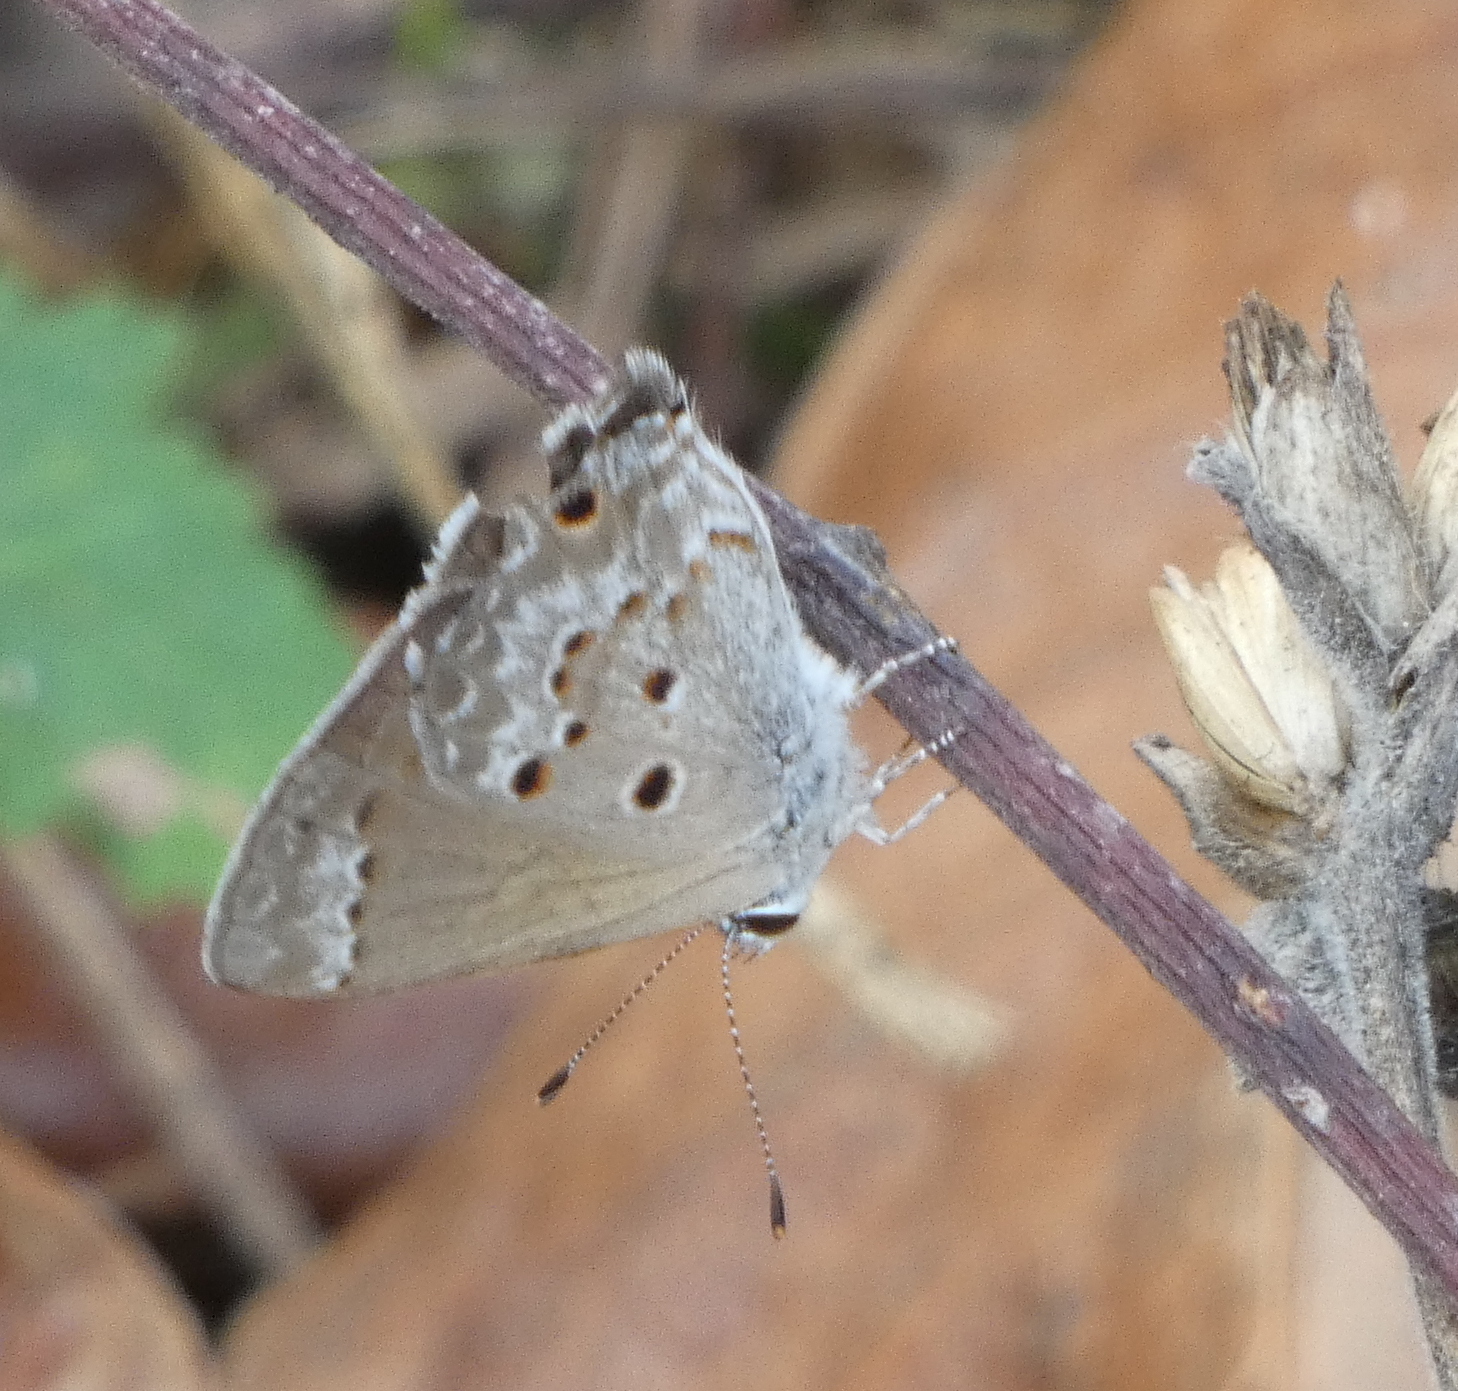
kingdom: Animalia
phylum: Arthropoda
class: Insecta
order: Lepidoptera
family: Lycaenidae
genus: Callicista
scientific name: Callicista columella
